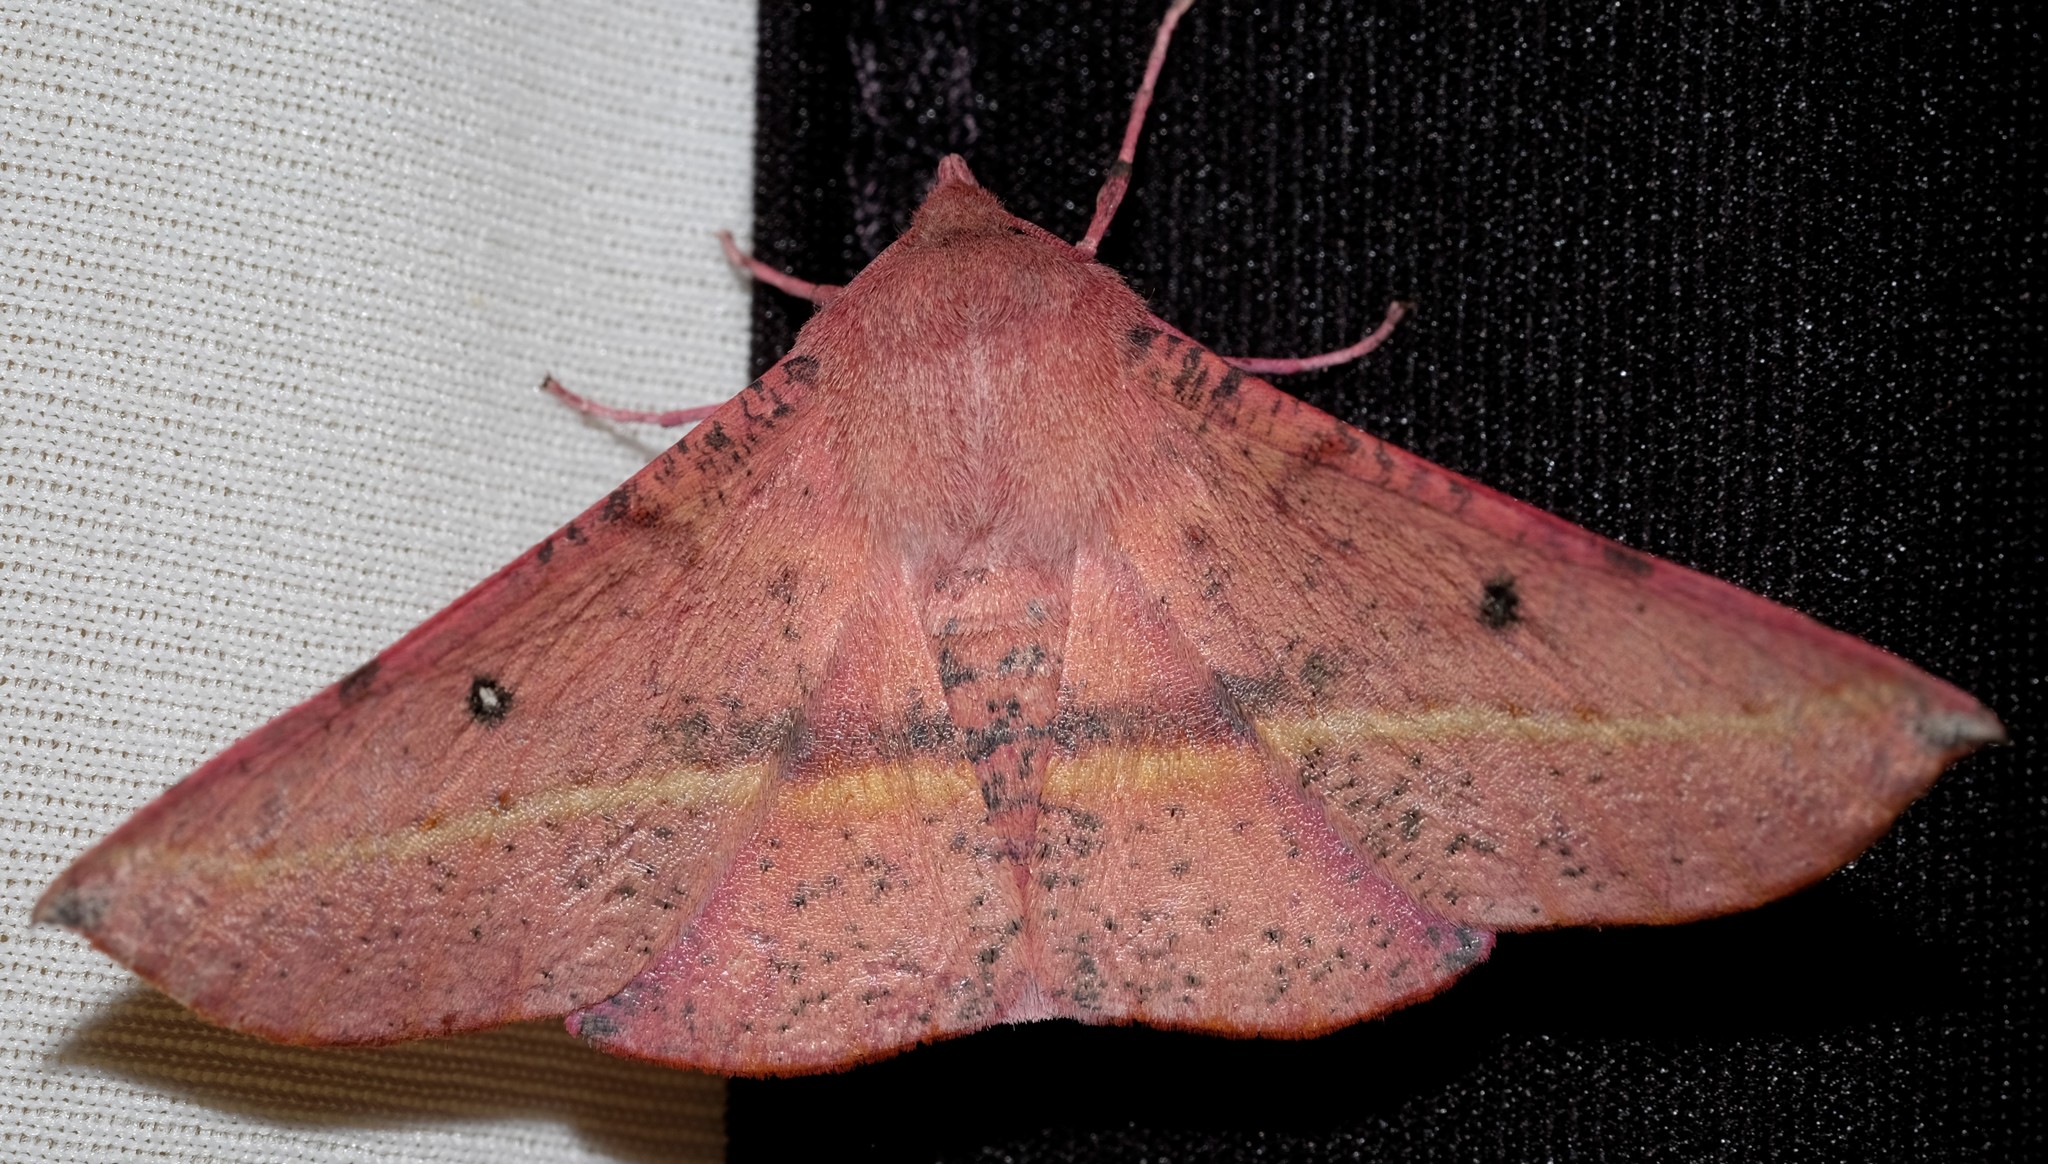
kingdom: Animalia
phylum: Arthropoda
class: Insecta
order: Lepidoptera
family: Geometridae
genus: Oenochroma
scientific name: Oenochroma vinaria
